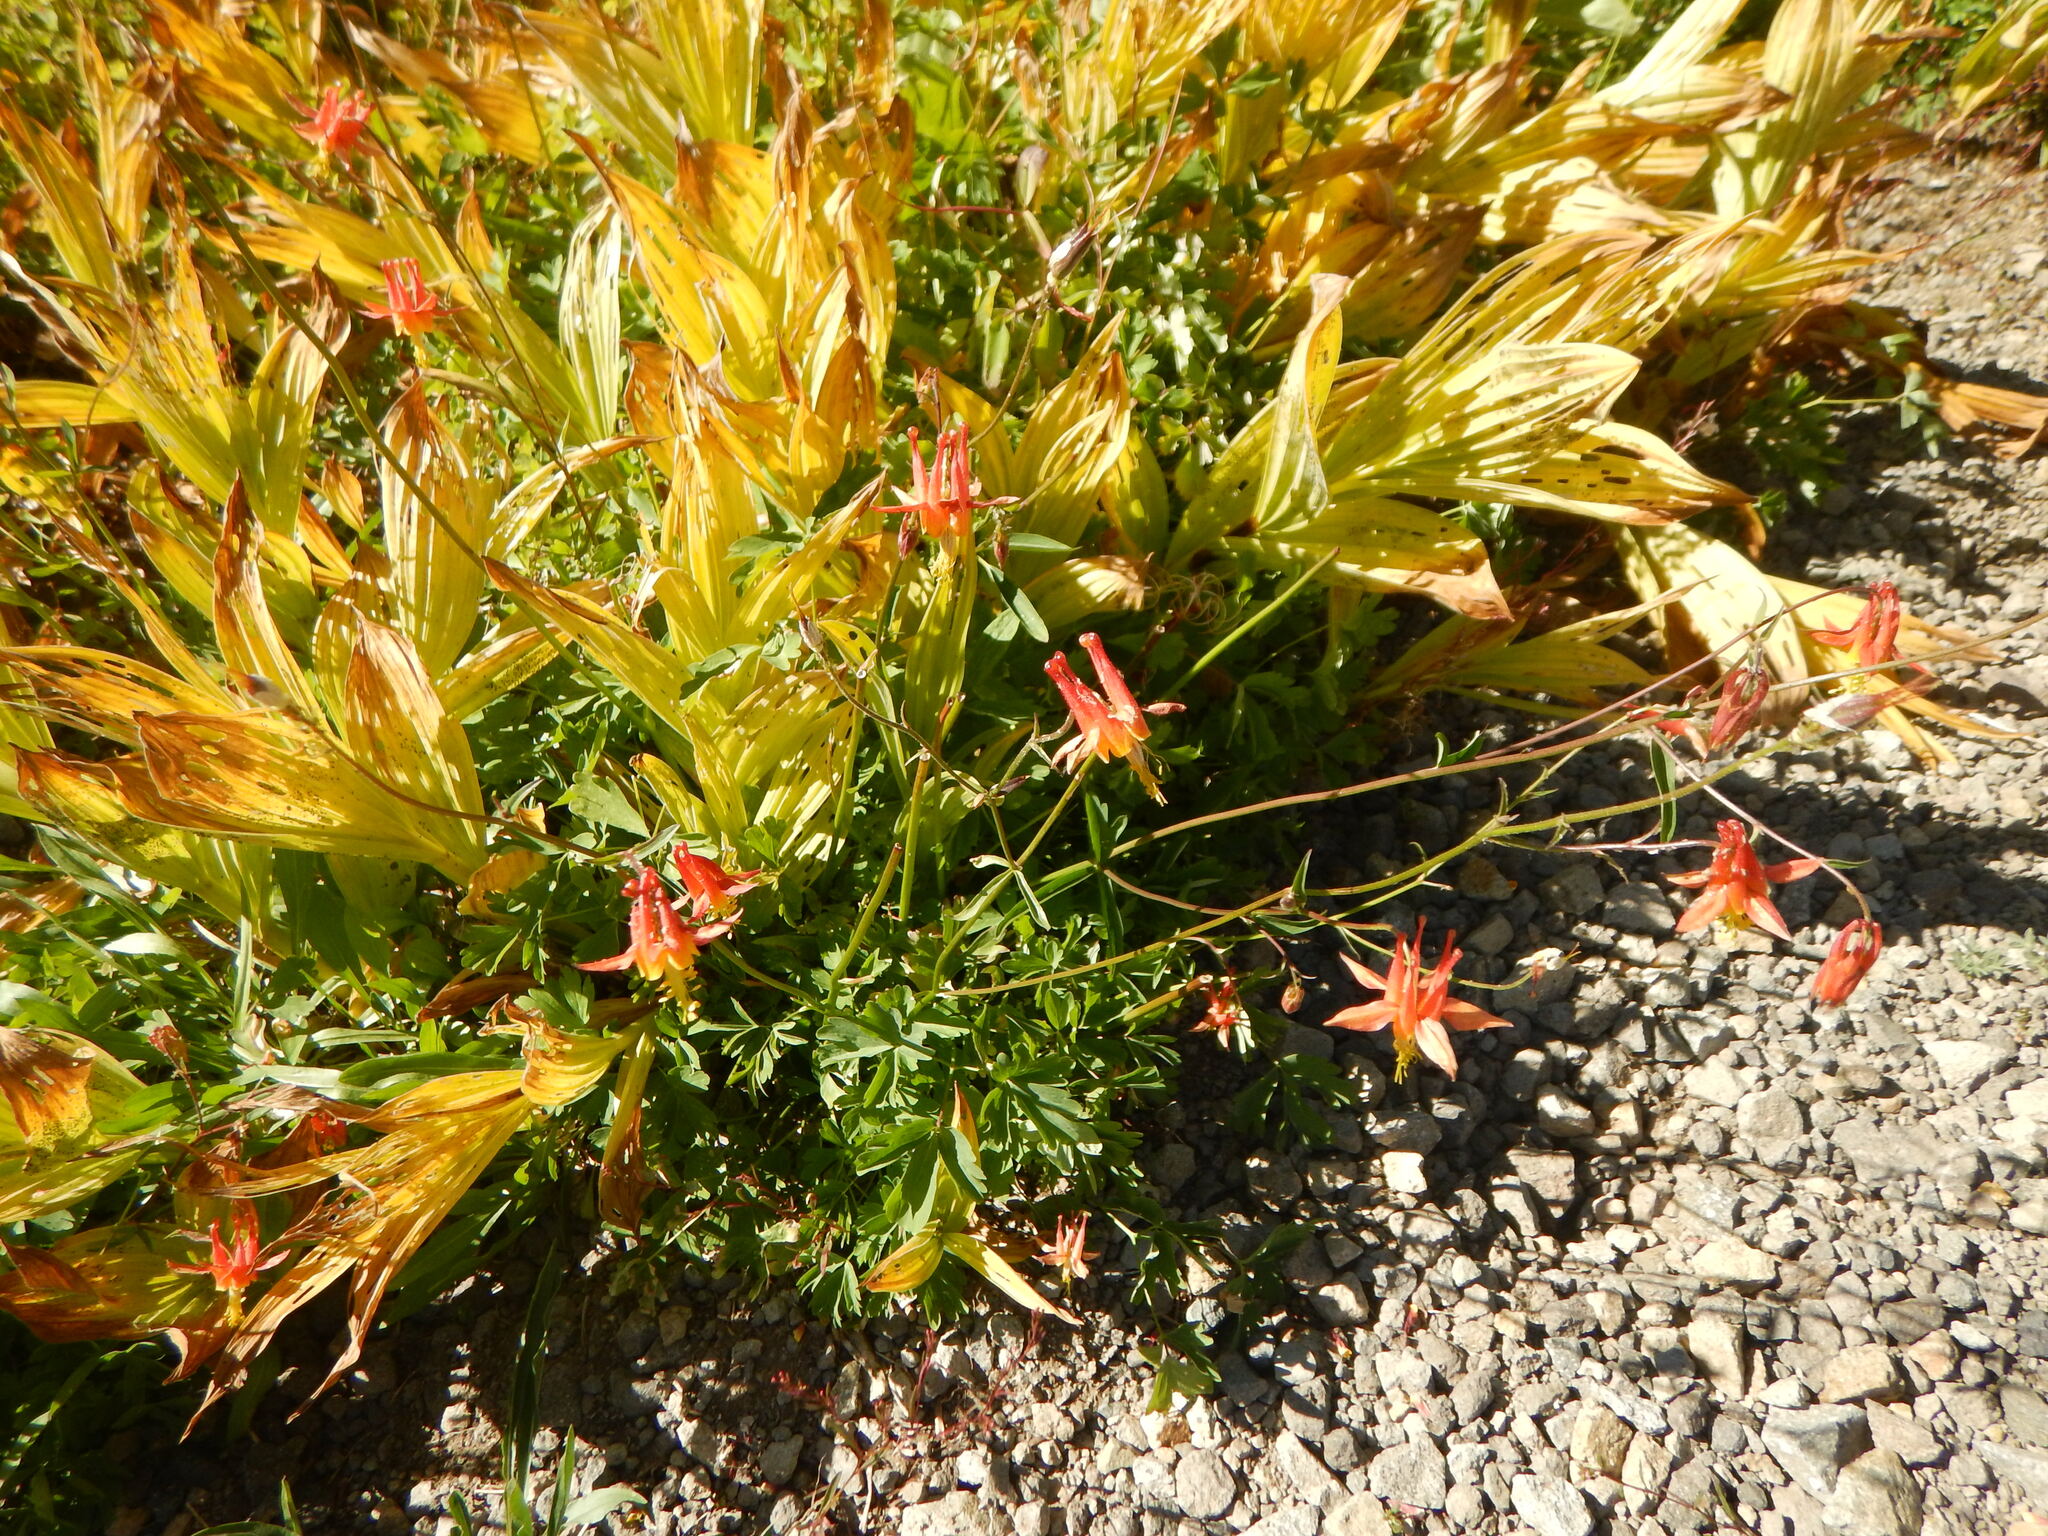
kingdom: Plantae
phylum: Tracheophyta
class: Magnoliopsida
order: Ranunculales
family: Ranunculaceae
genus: Aquilegia
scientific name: Aquilegia formosa
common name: Sitka columbine
